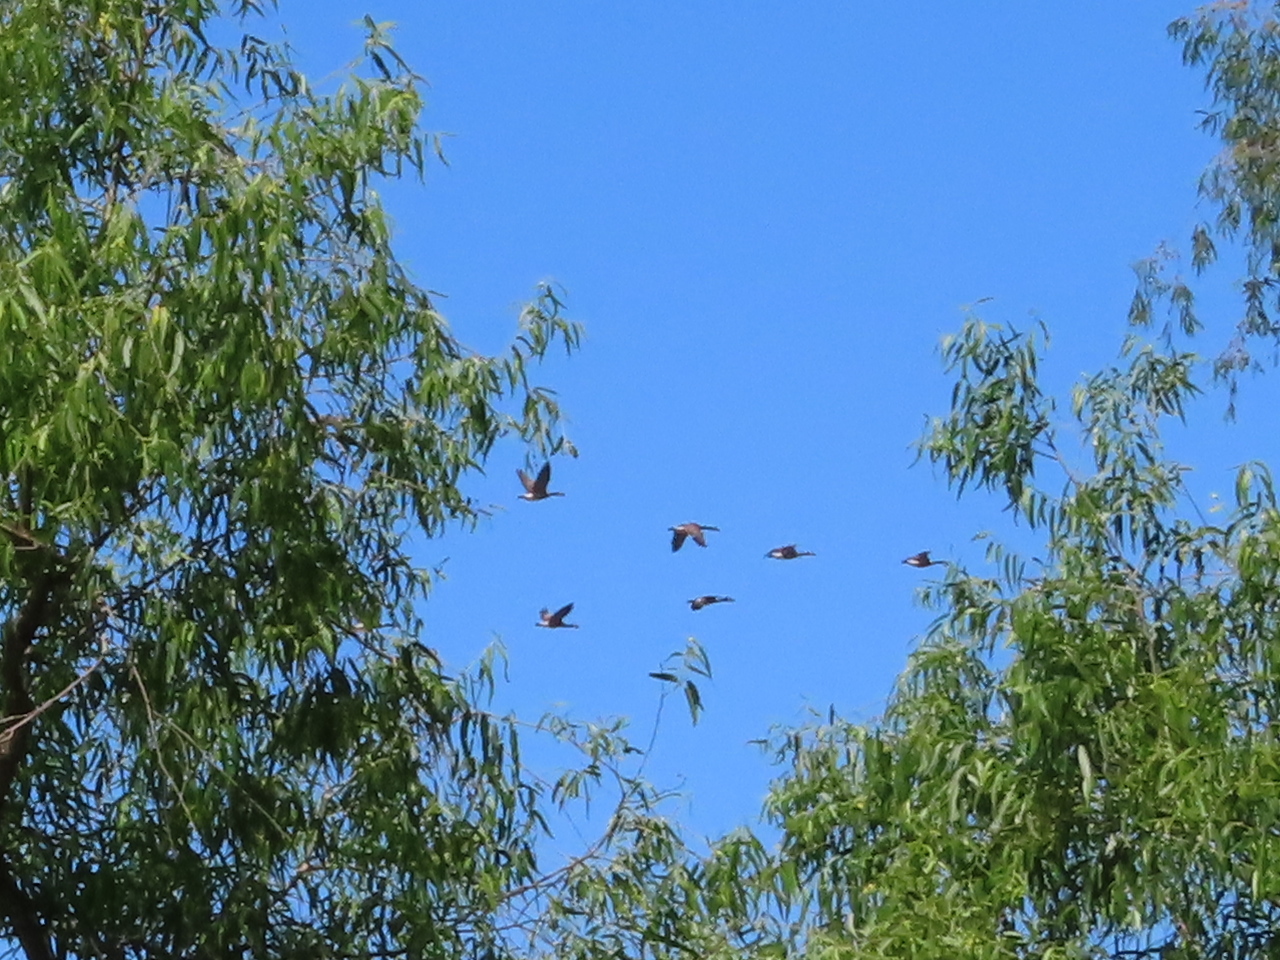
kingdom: Animalia
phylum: Chordata
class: Aves
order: Anseriformes
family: Anatidae
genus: Branta
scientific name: Branta canadensis
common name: Canada goose
